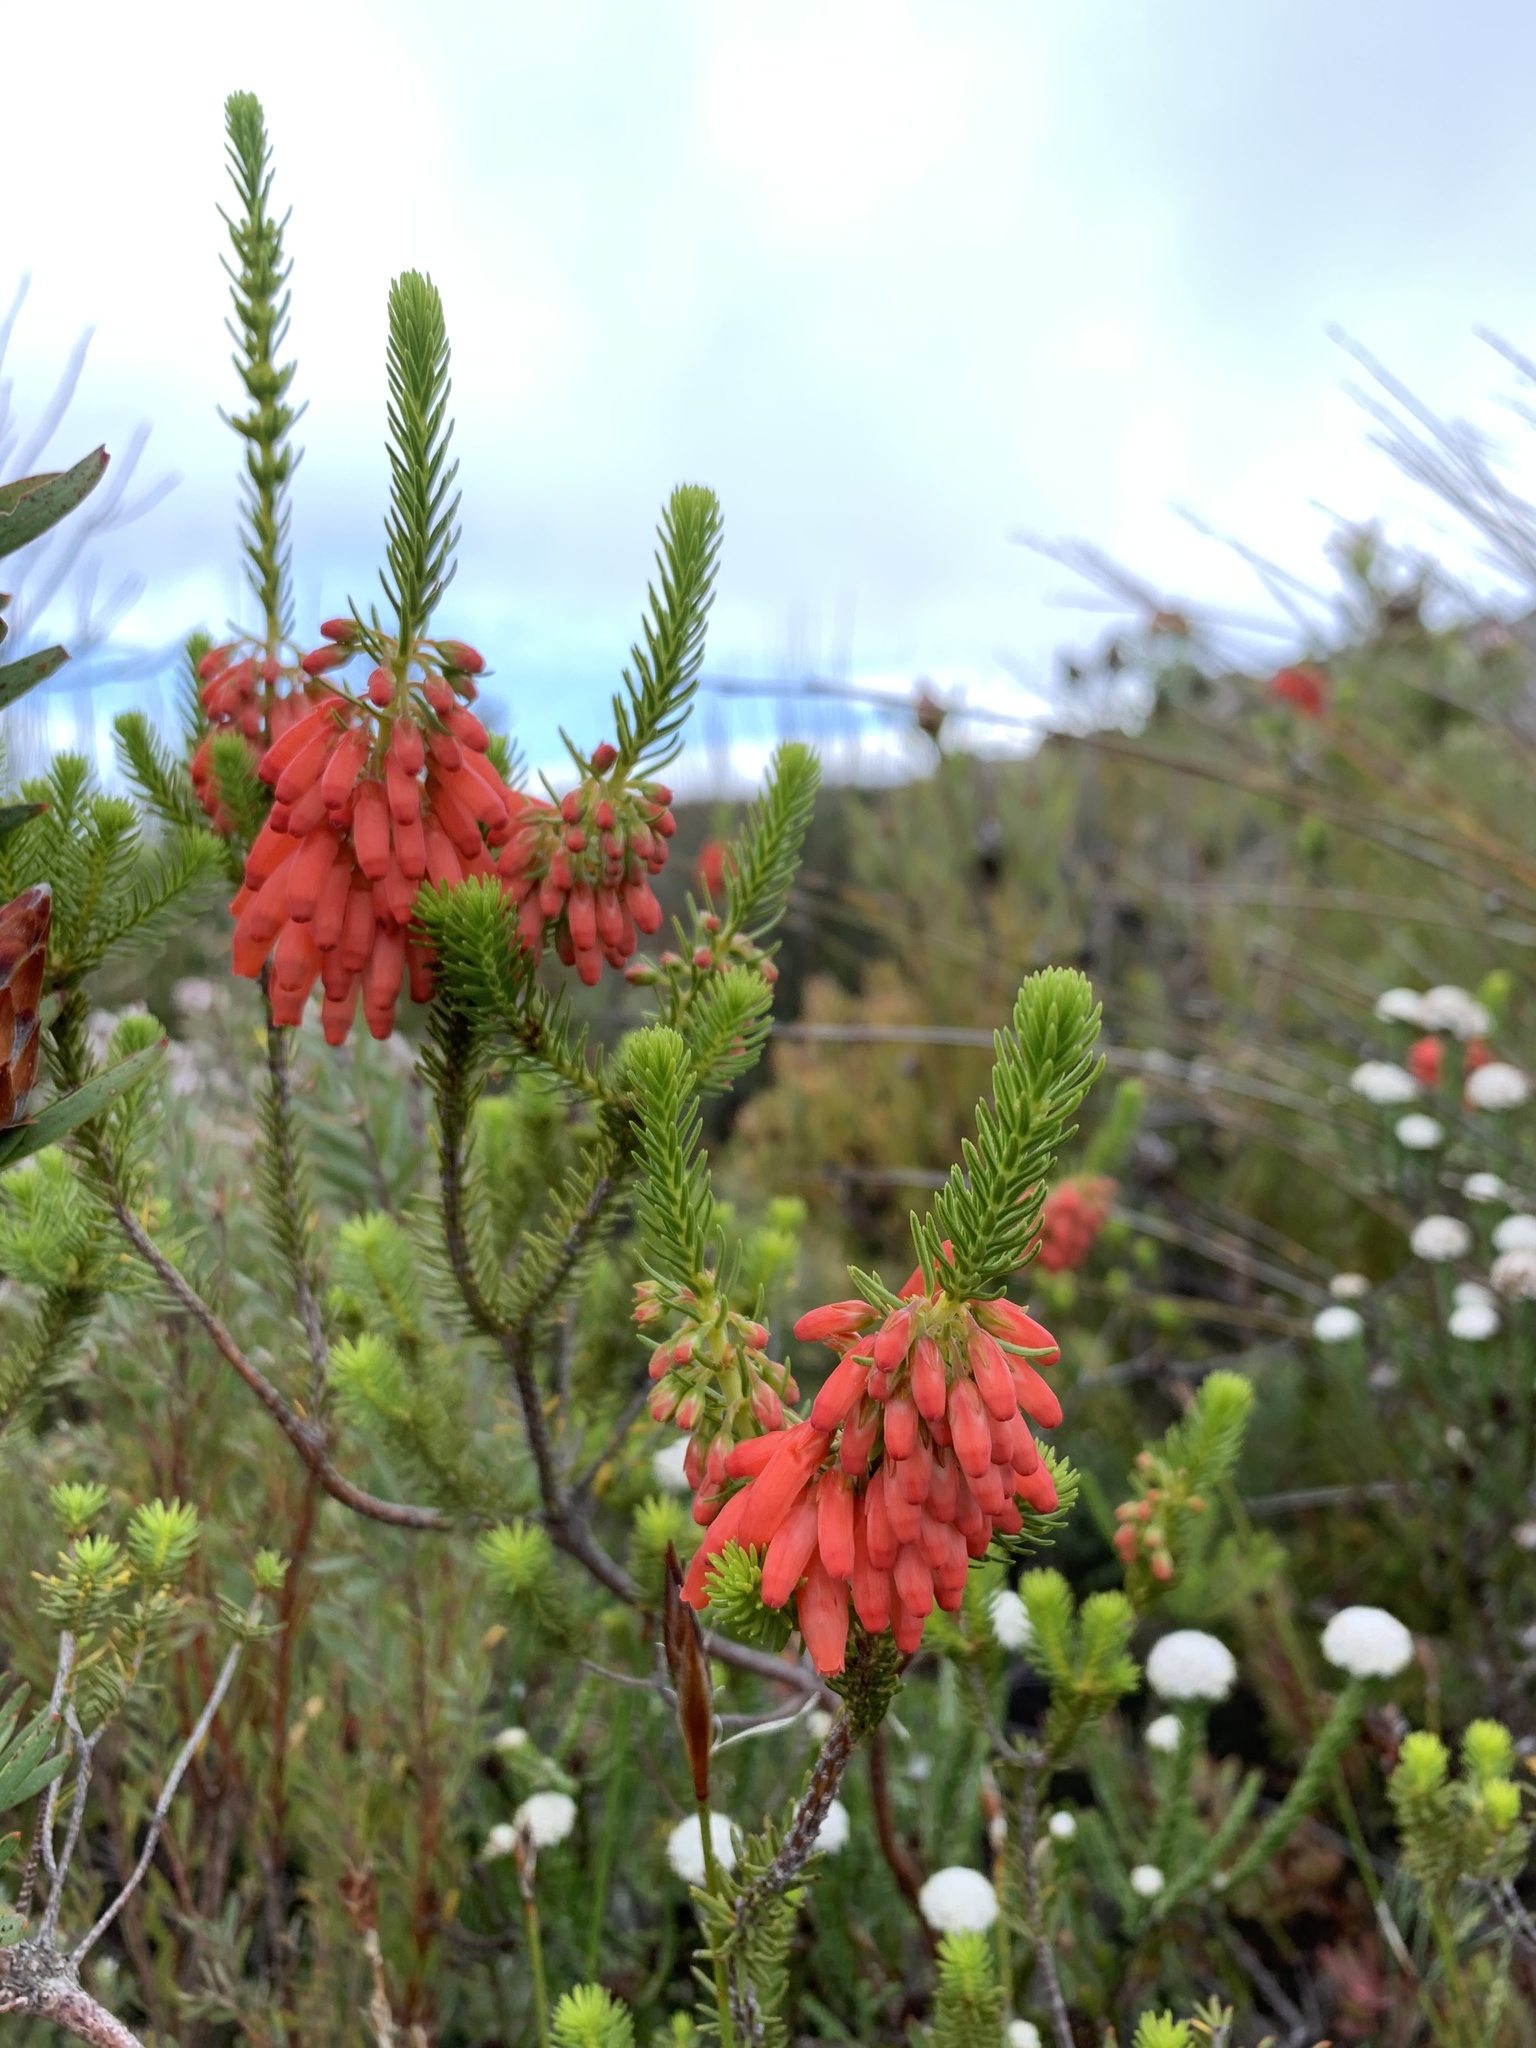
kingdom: Plantae
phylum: Tracheophyta
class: Magnoliopsida
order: Ericales
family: Ericaceae
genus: Erica
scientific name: Erica mammosa
